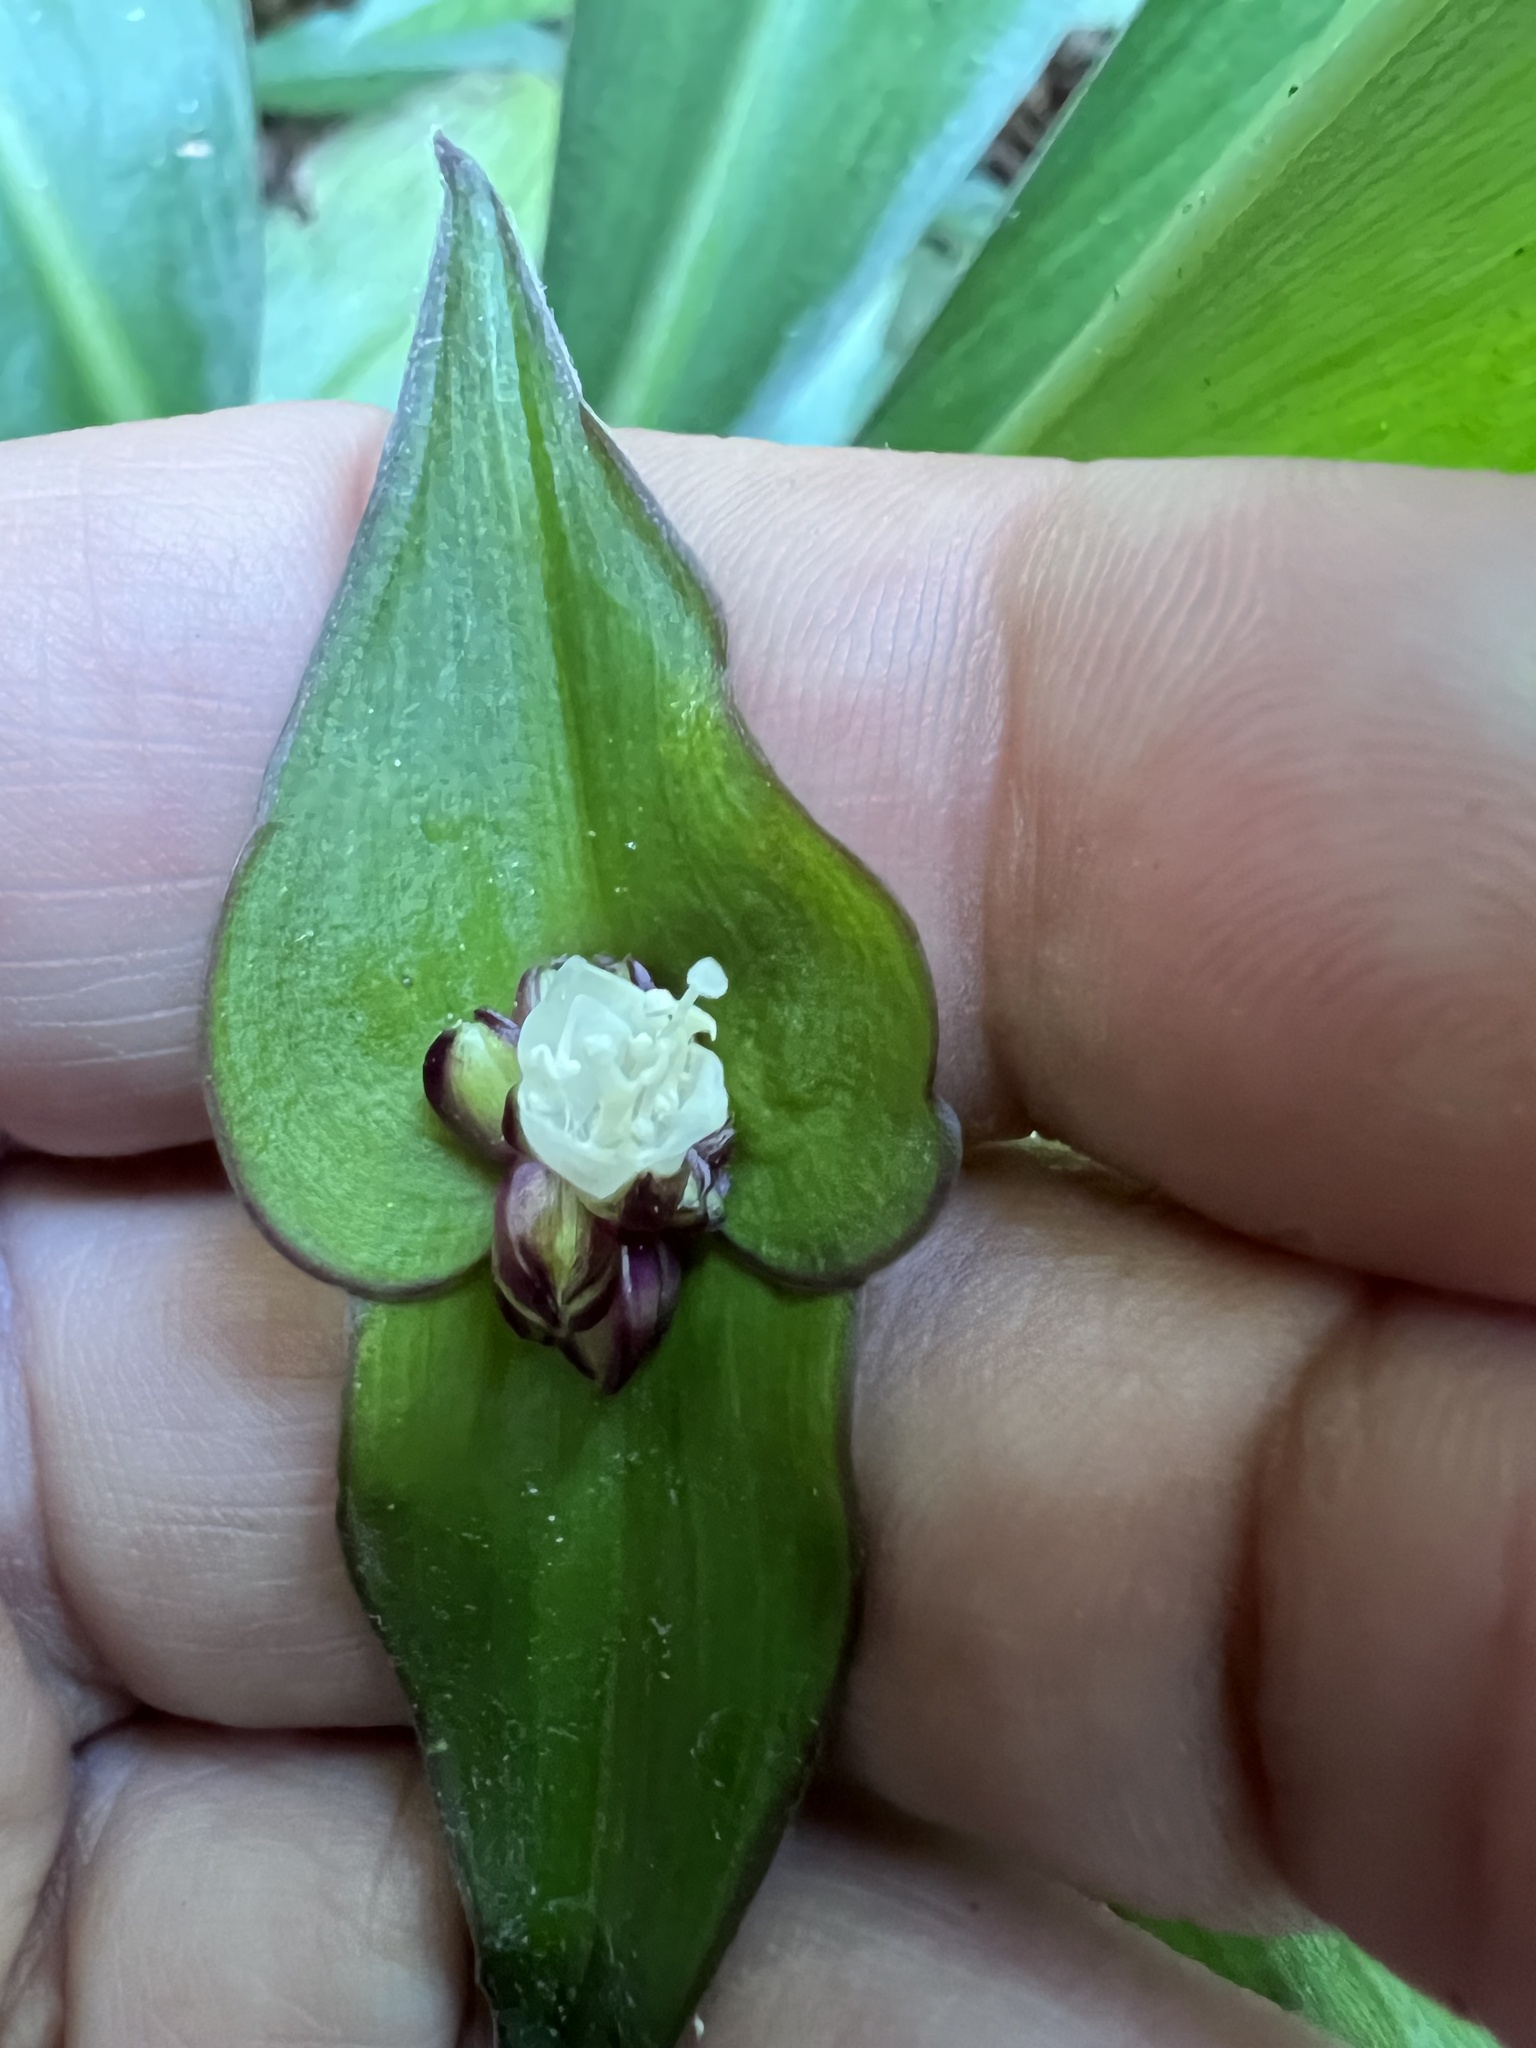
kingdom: Plantae
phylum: Tracheophyta
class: Liliopsida
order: Commelinales
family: Commelinaceae
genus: Tradescantia
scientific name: Tradescantia zanonia
